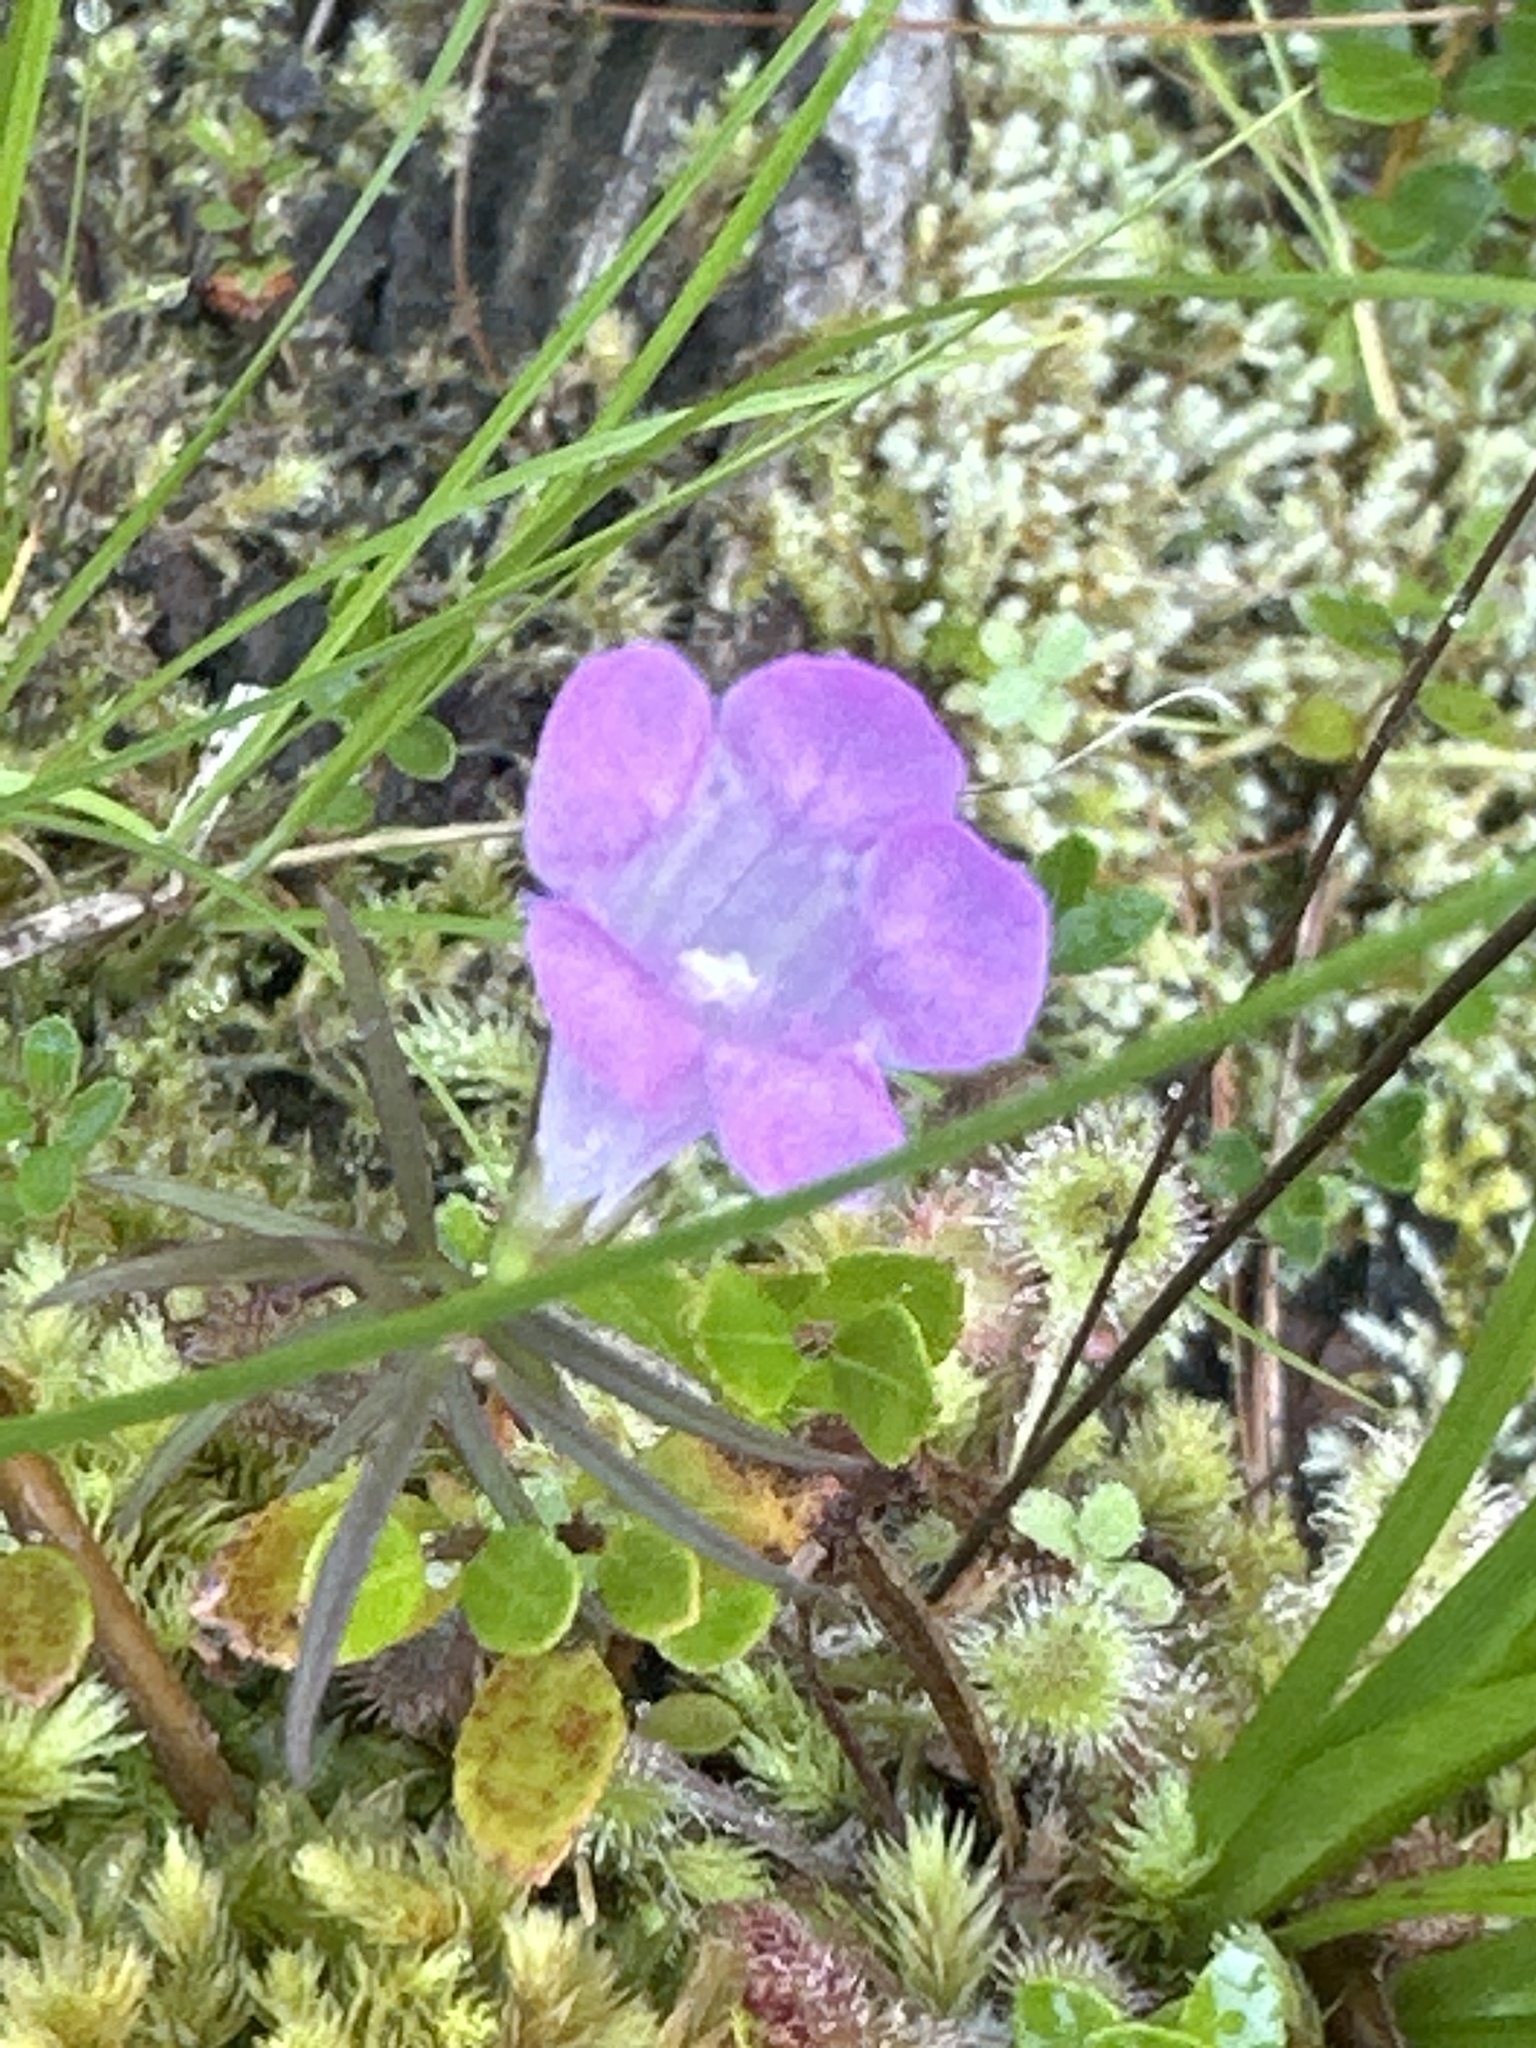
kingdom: Plantae
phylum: Tracheophyta
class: Magnoliopsida
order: Lamiales
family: Orobanchaceae
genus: Agalinis
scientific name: Agalinis purpurea
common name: Purple false foxglove
